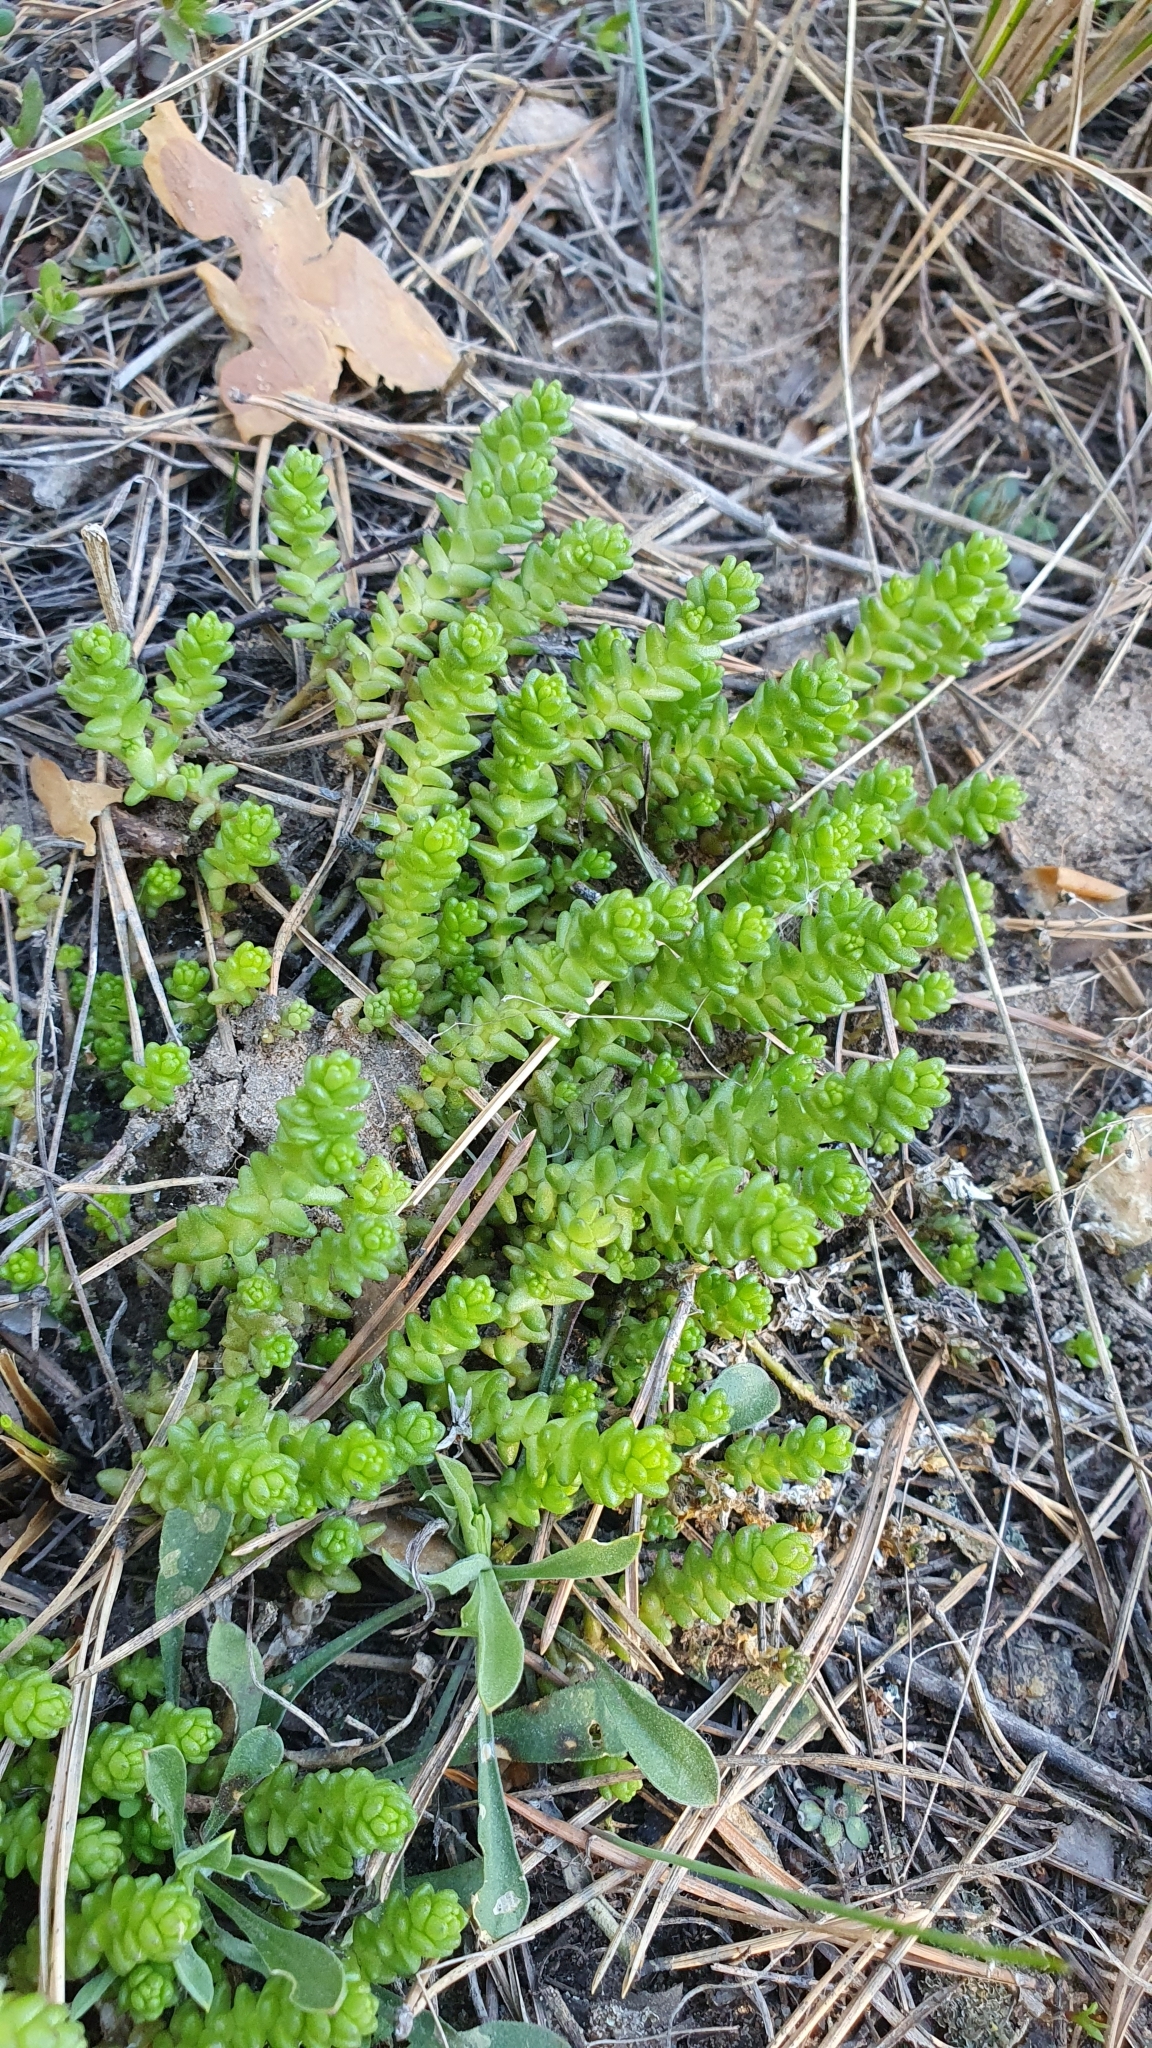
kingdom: Plantae
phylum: Tracheophyta
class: Magnoliopsida
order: Saxifragales
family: Crassulaceae
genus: Sedum
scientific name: Sedum acre
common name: Biting stonecrop
